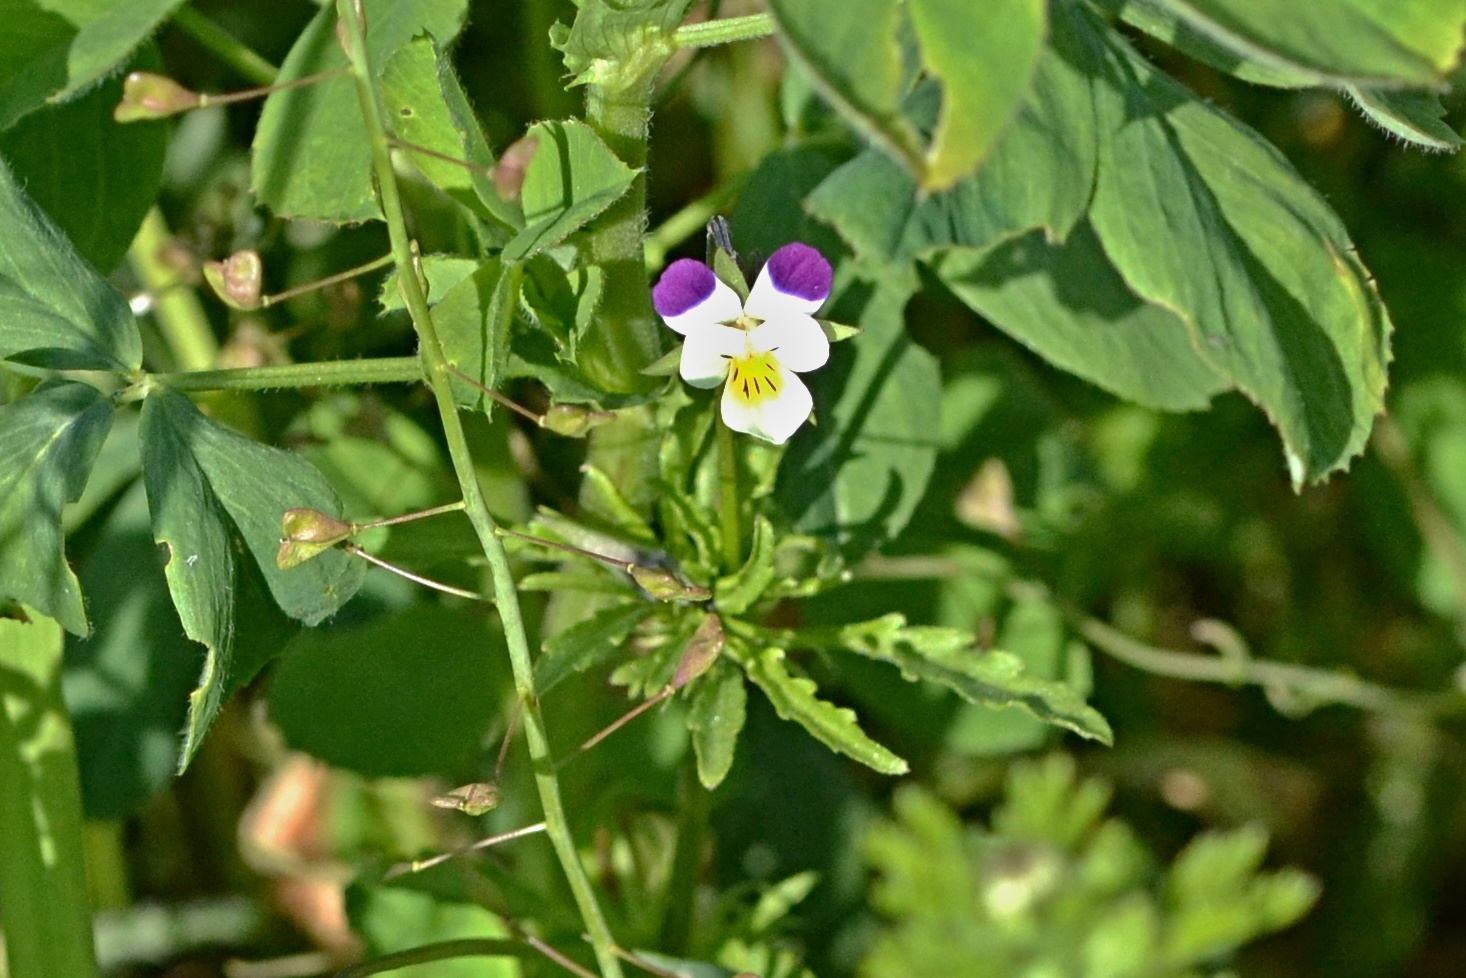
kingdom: Plantae
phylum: Tracheophyta
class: Magnoliopsida
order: Malpighiales
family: Violaceae
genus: Viola
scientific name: Viola arvensis
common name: Field pansy
